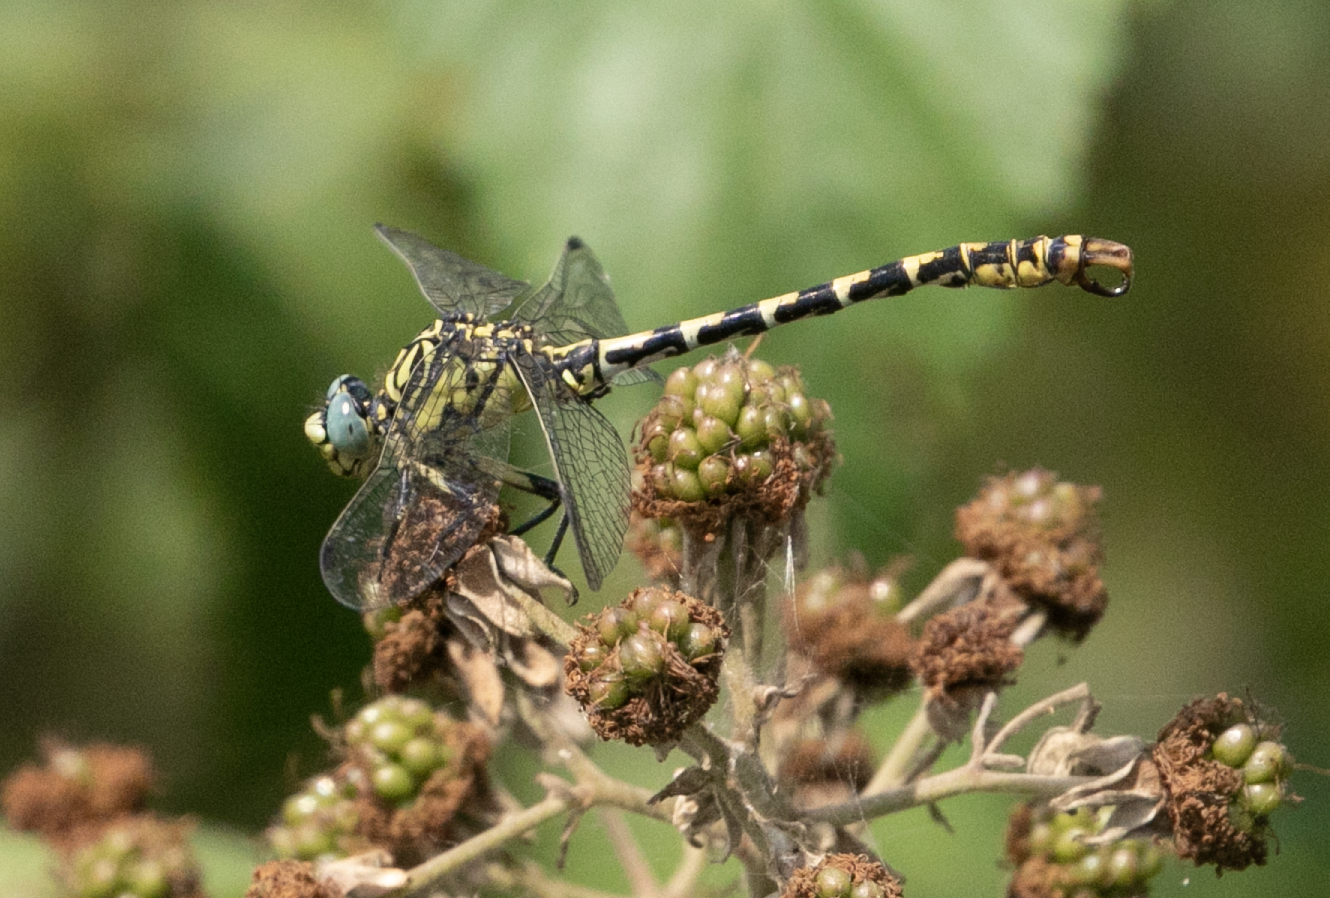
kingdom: Animalia
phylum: Arthropoda
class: Insecta
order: Odonata
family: Gomphidae
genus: Onychogomphus
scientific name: Onychogomphus forcipatus
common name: Small pincertail
